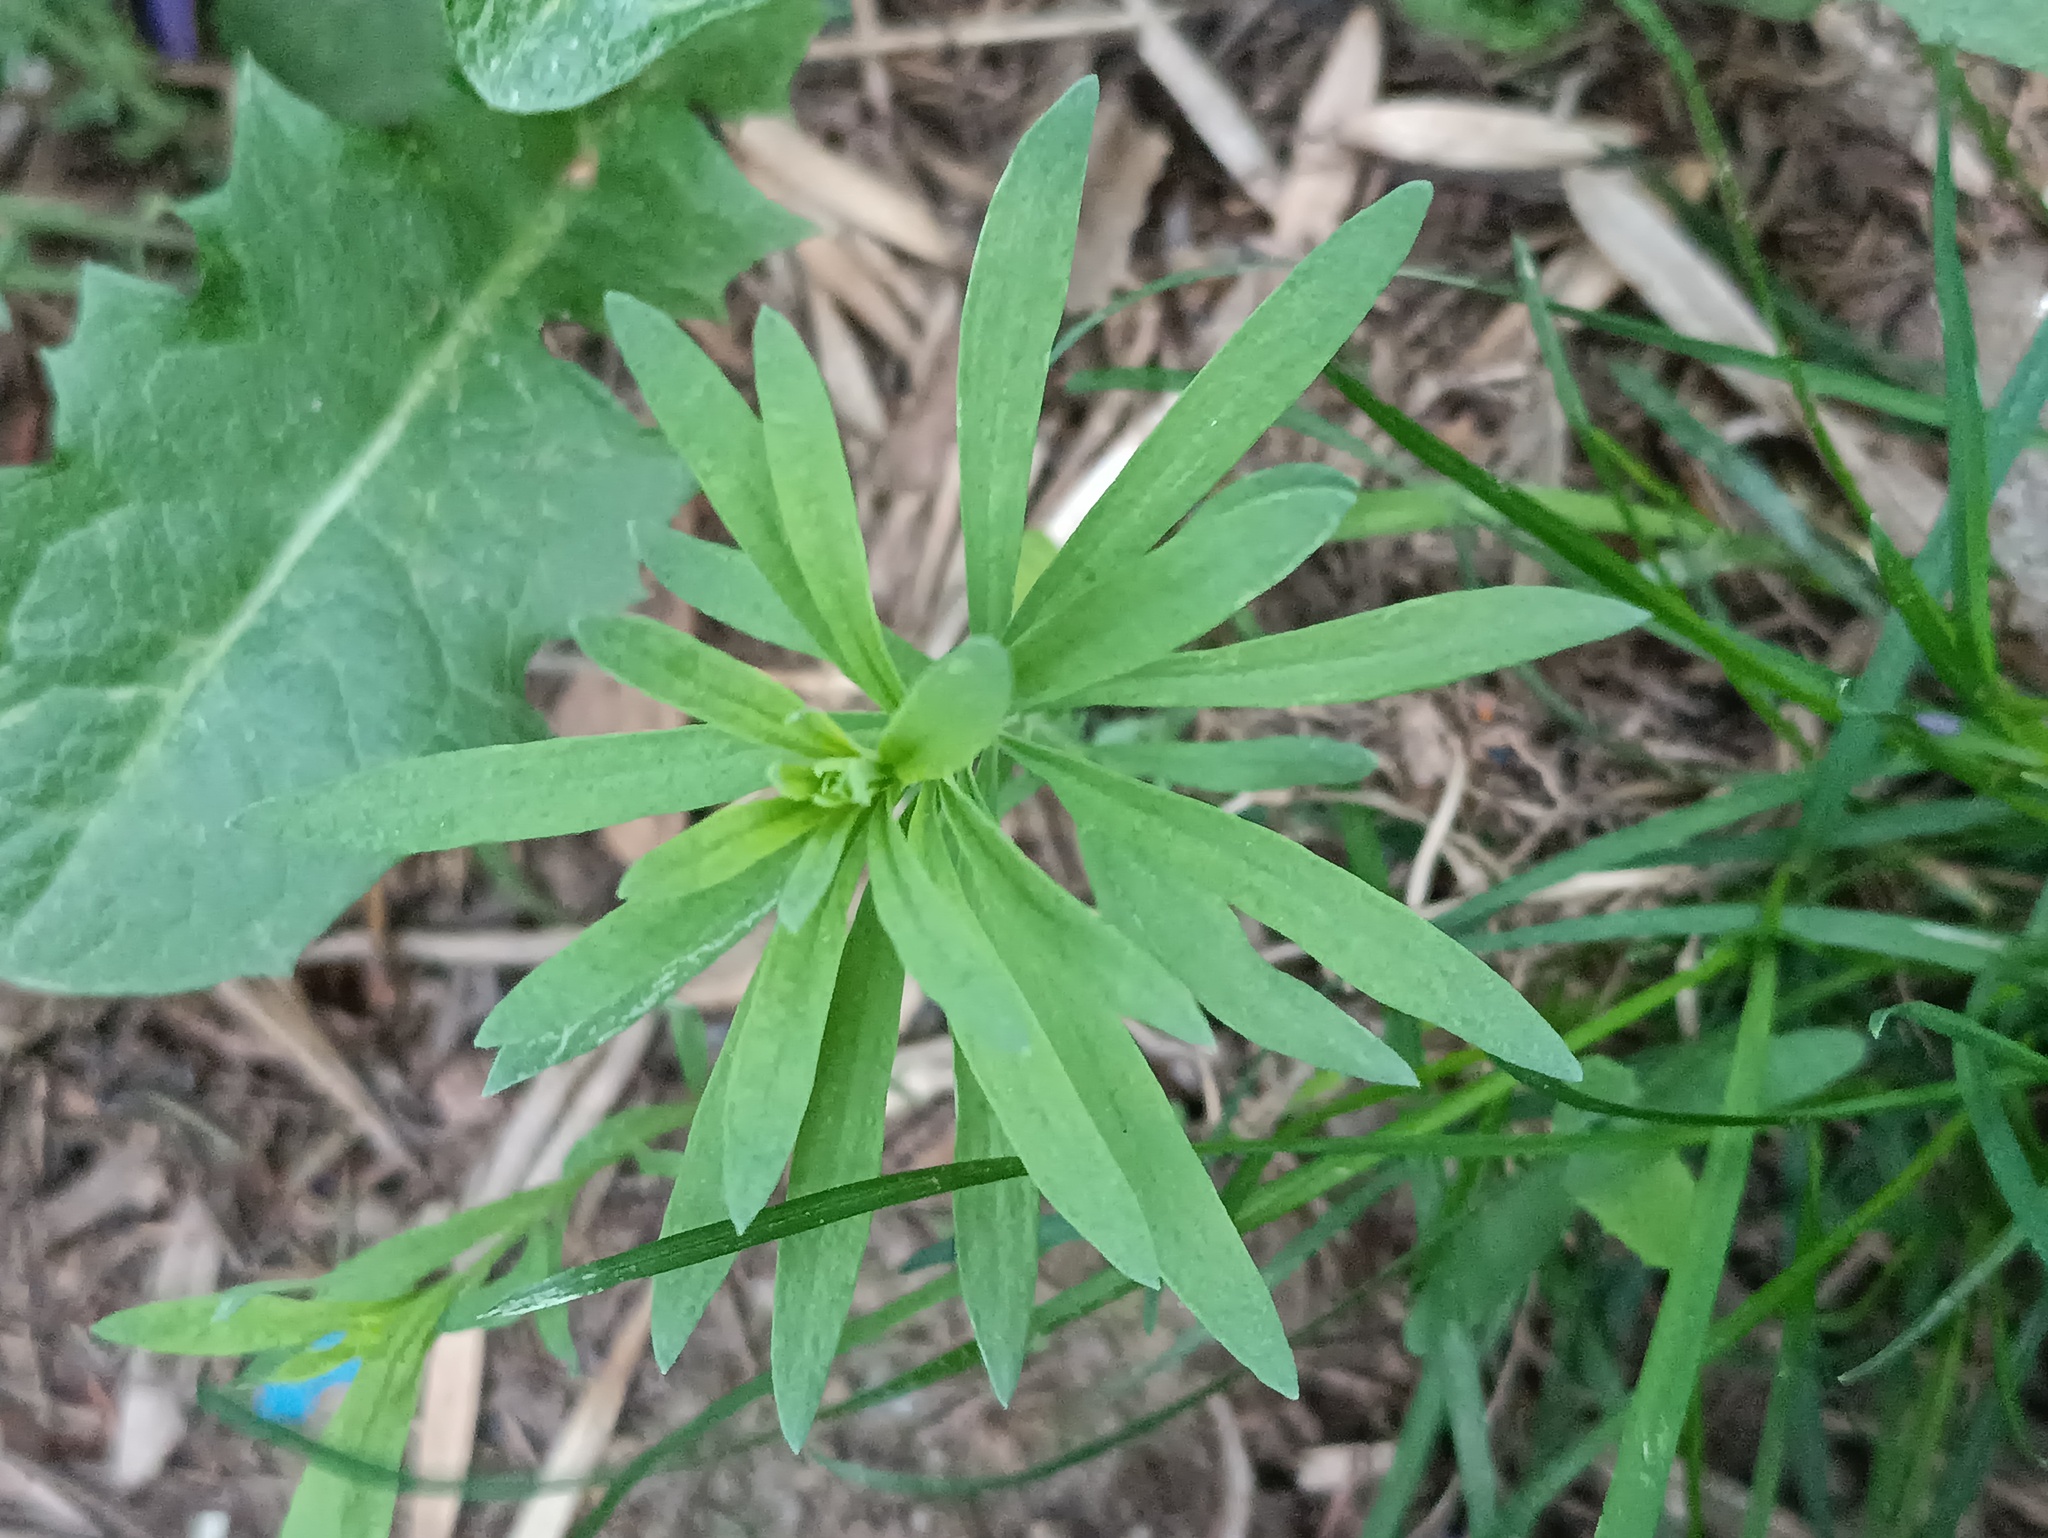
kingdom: Plantae
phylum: Tracheophyta
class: Magnoliopsida
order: Lamiales
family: Plantaginaceae
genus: Linaria
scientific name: Linaria vulgaris
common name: Butter and eggs
